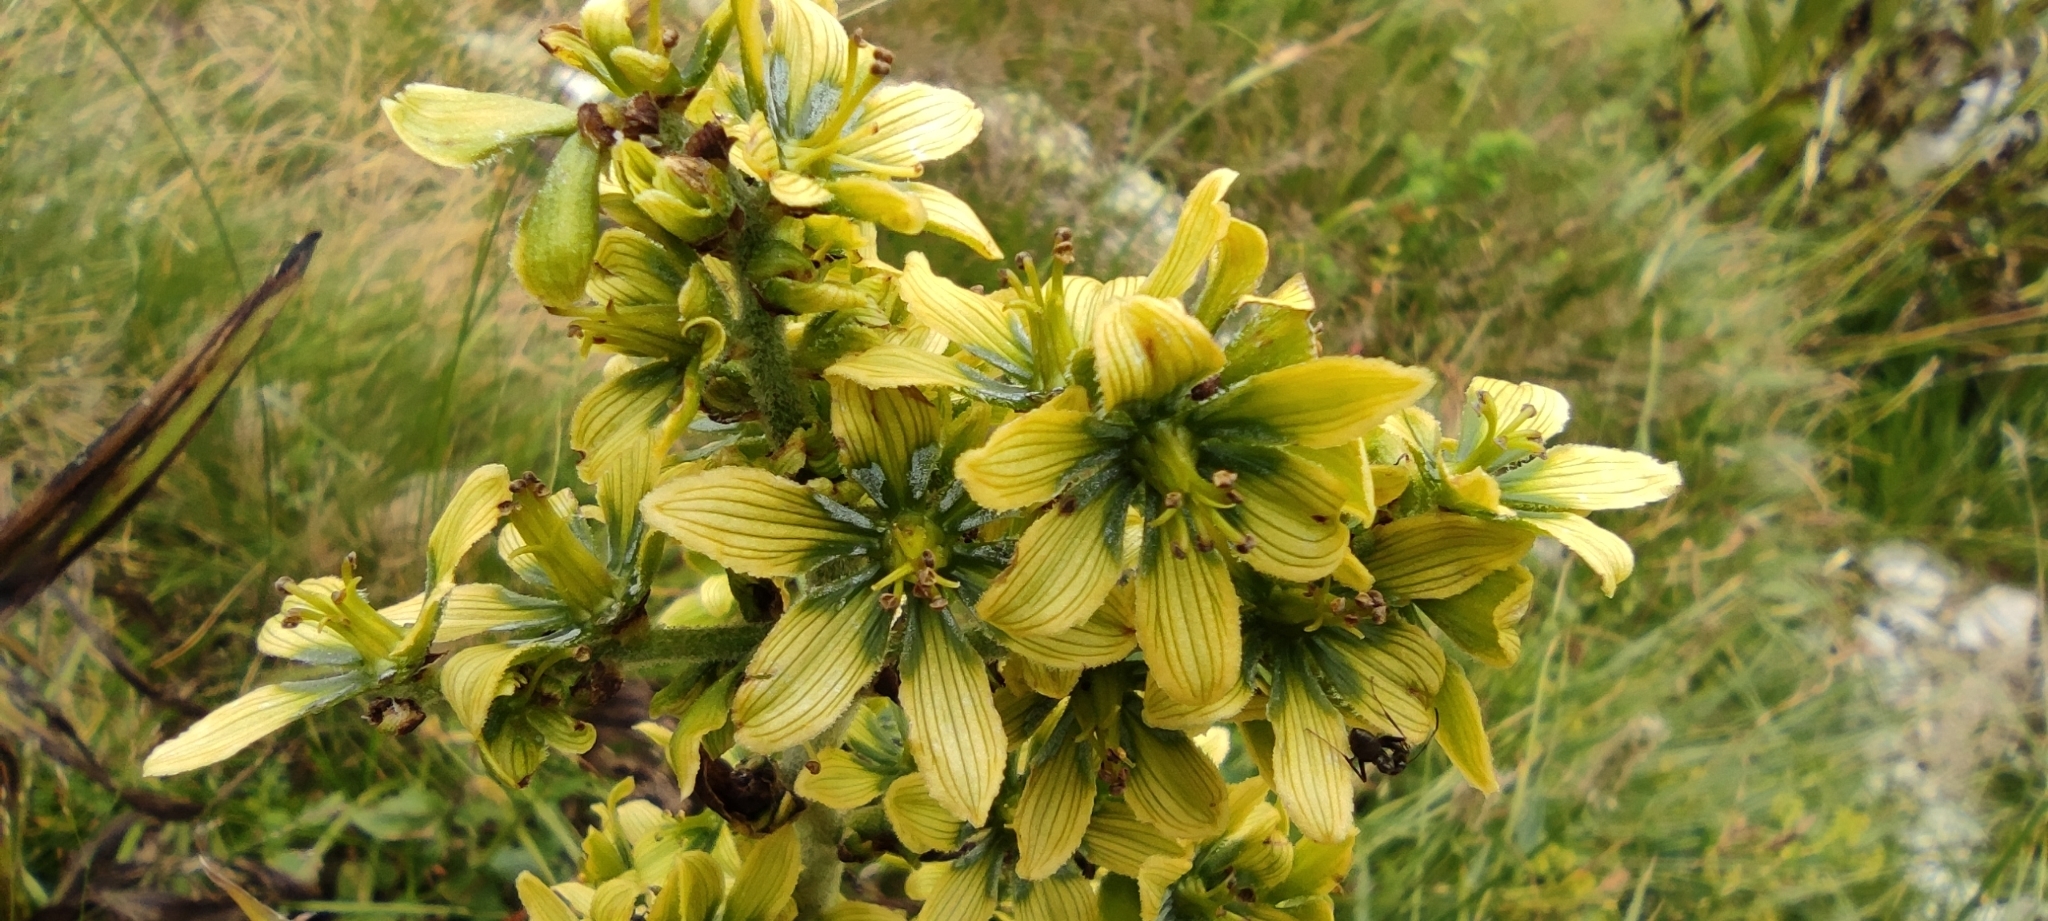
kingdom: Plantae
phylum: Tracheophyta
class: Liliopsida
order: Liliales
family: Melanthiaceae
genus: Veratrum
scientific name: Veratrum album
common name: White veratrum
